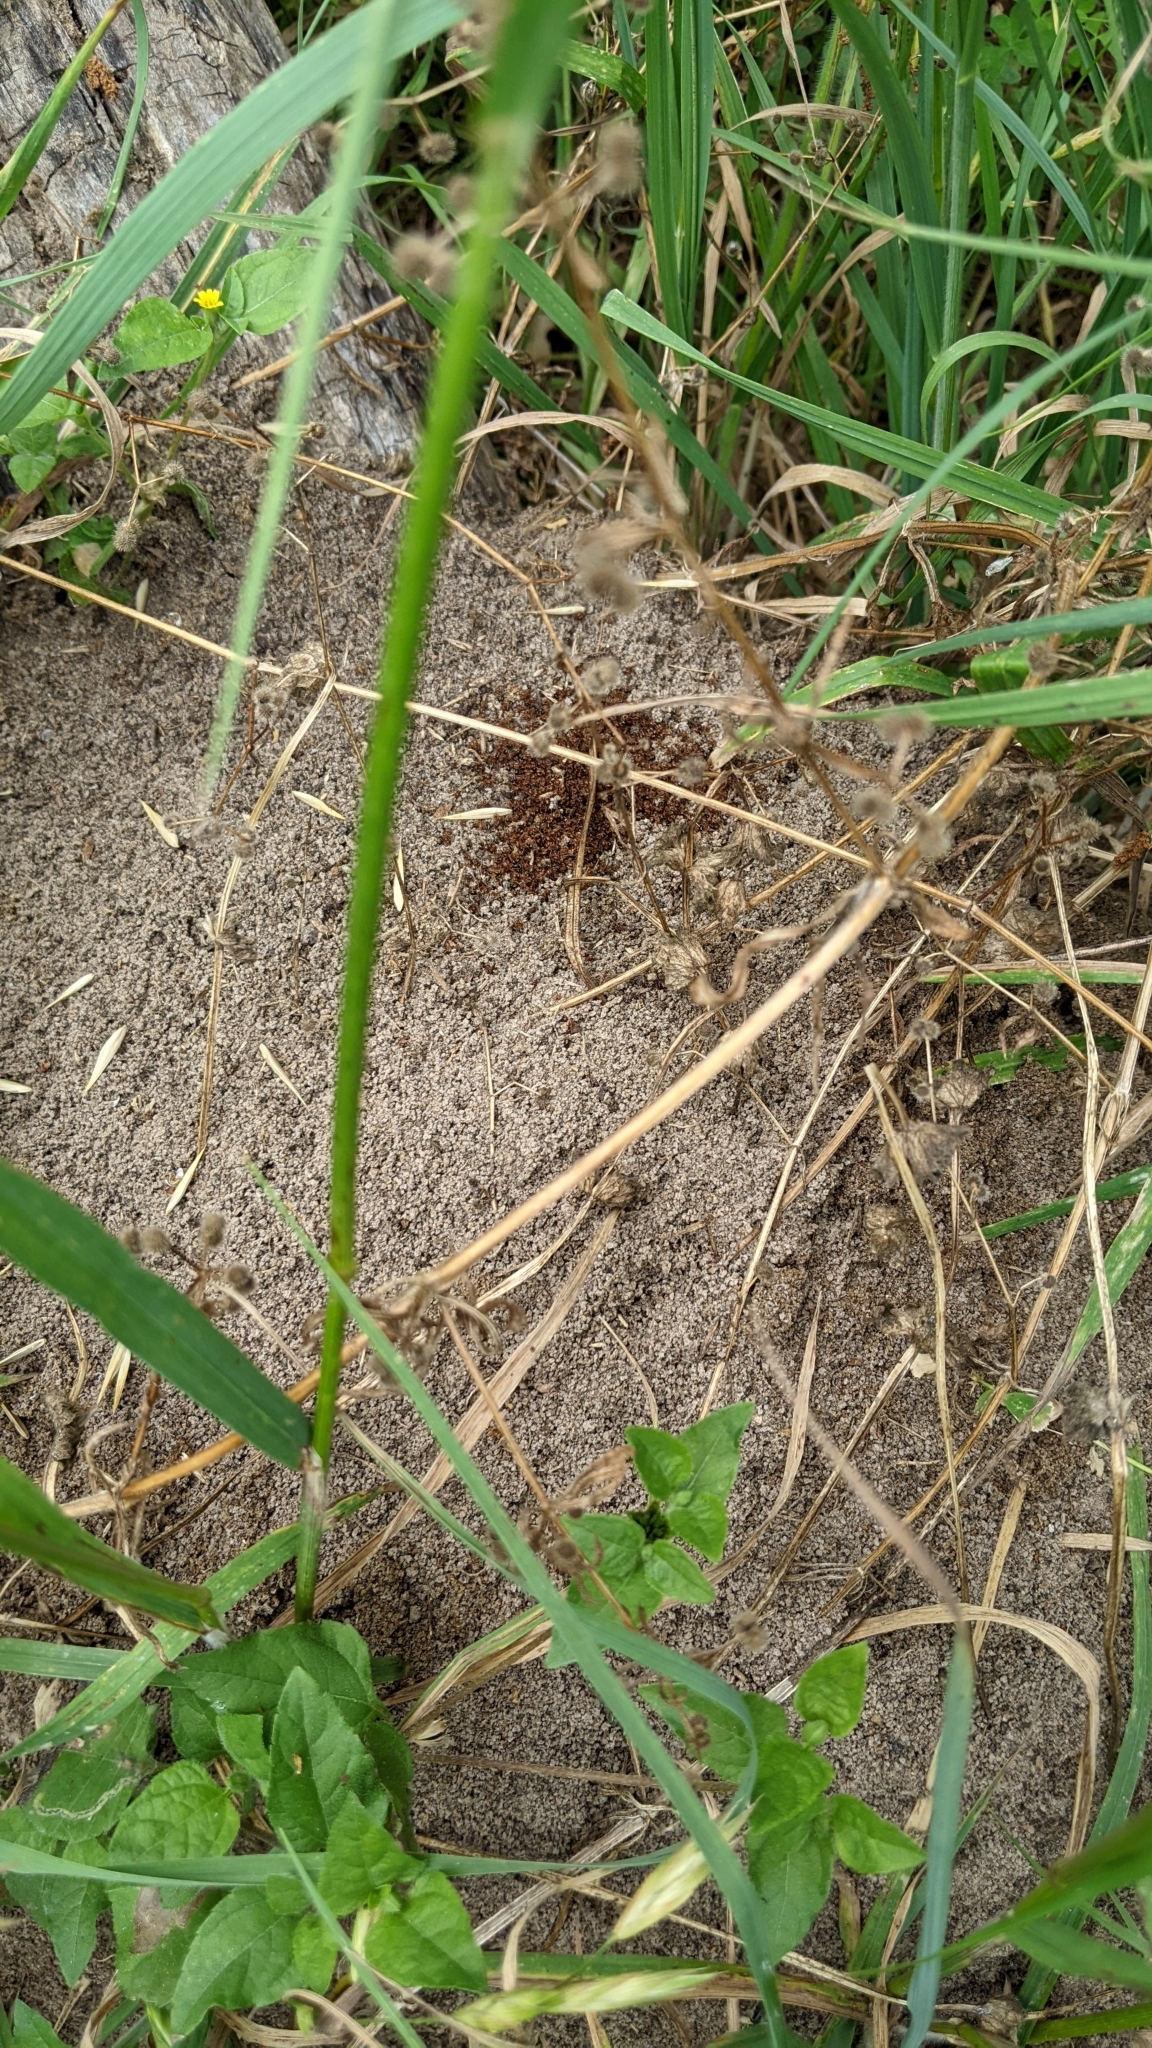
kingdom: Animalia
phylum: Arthropoda
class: Insecta
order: Hymenoptera
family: Formicidae
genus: Solenopsis
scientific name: Solenopsis invicta
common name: Red imported fire ant
